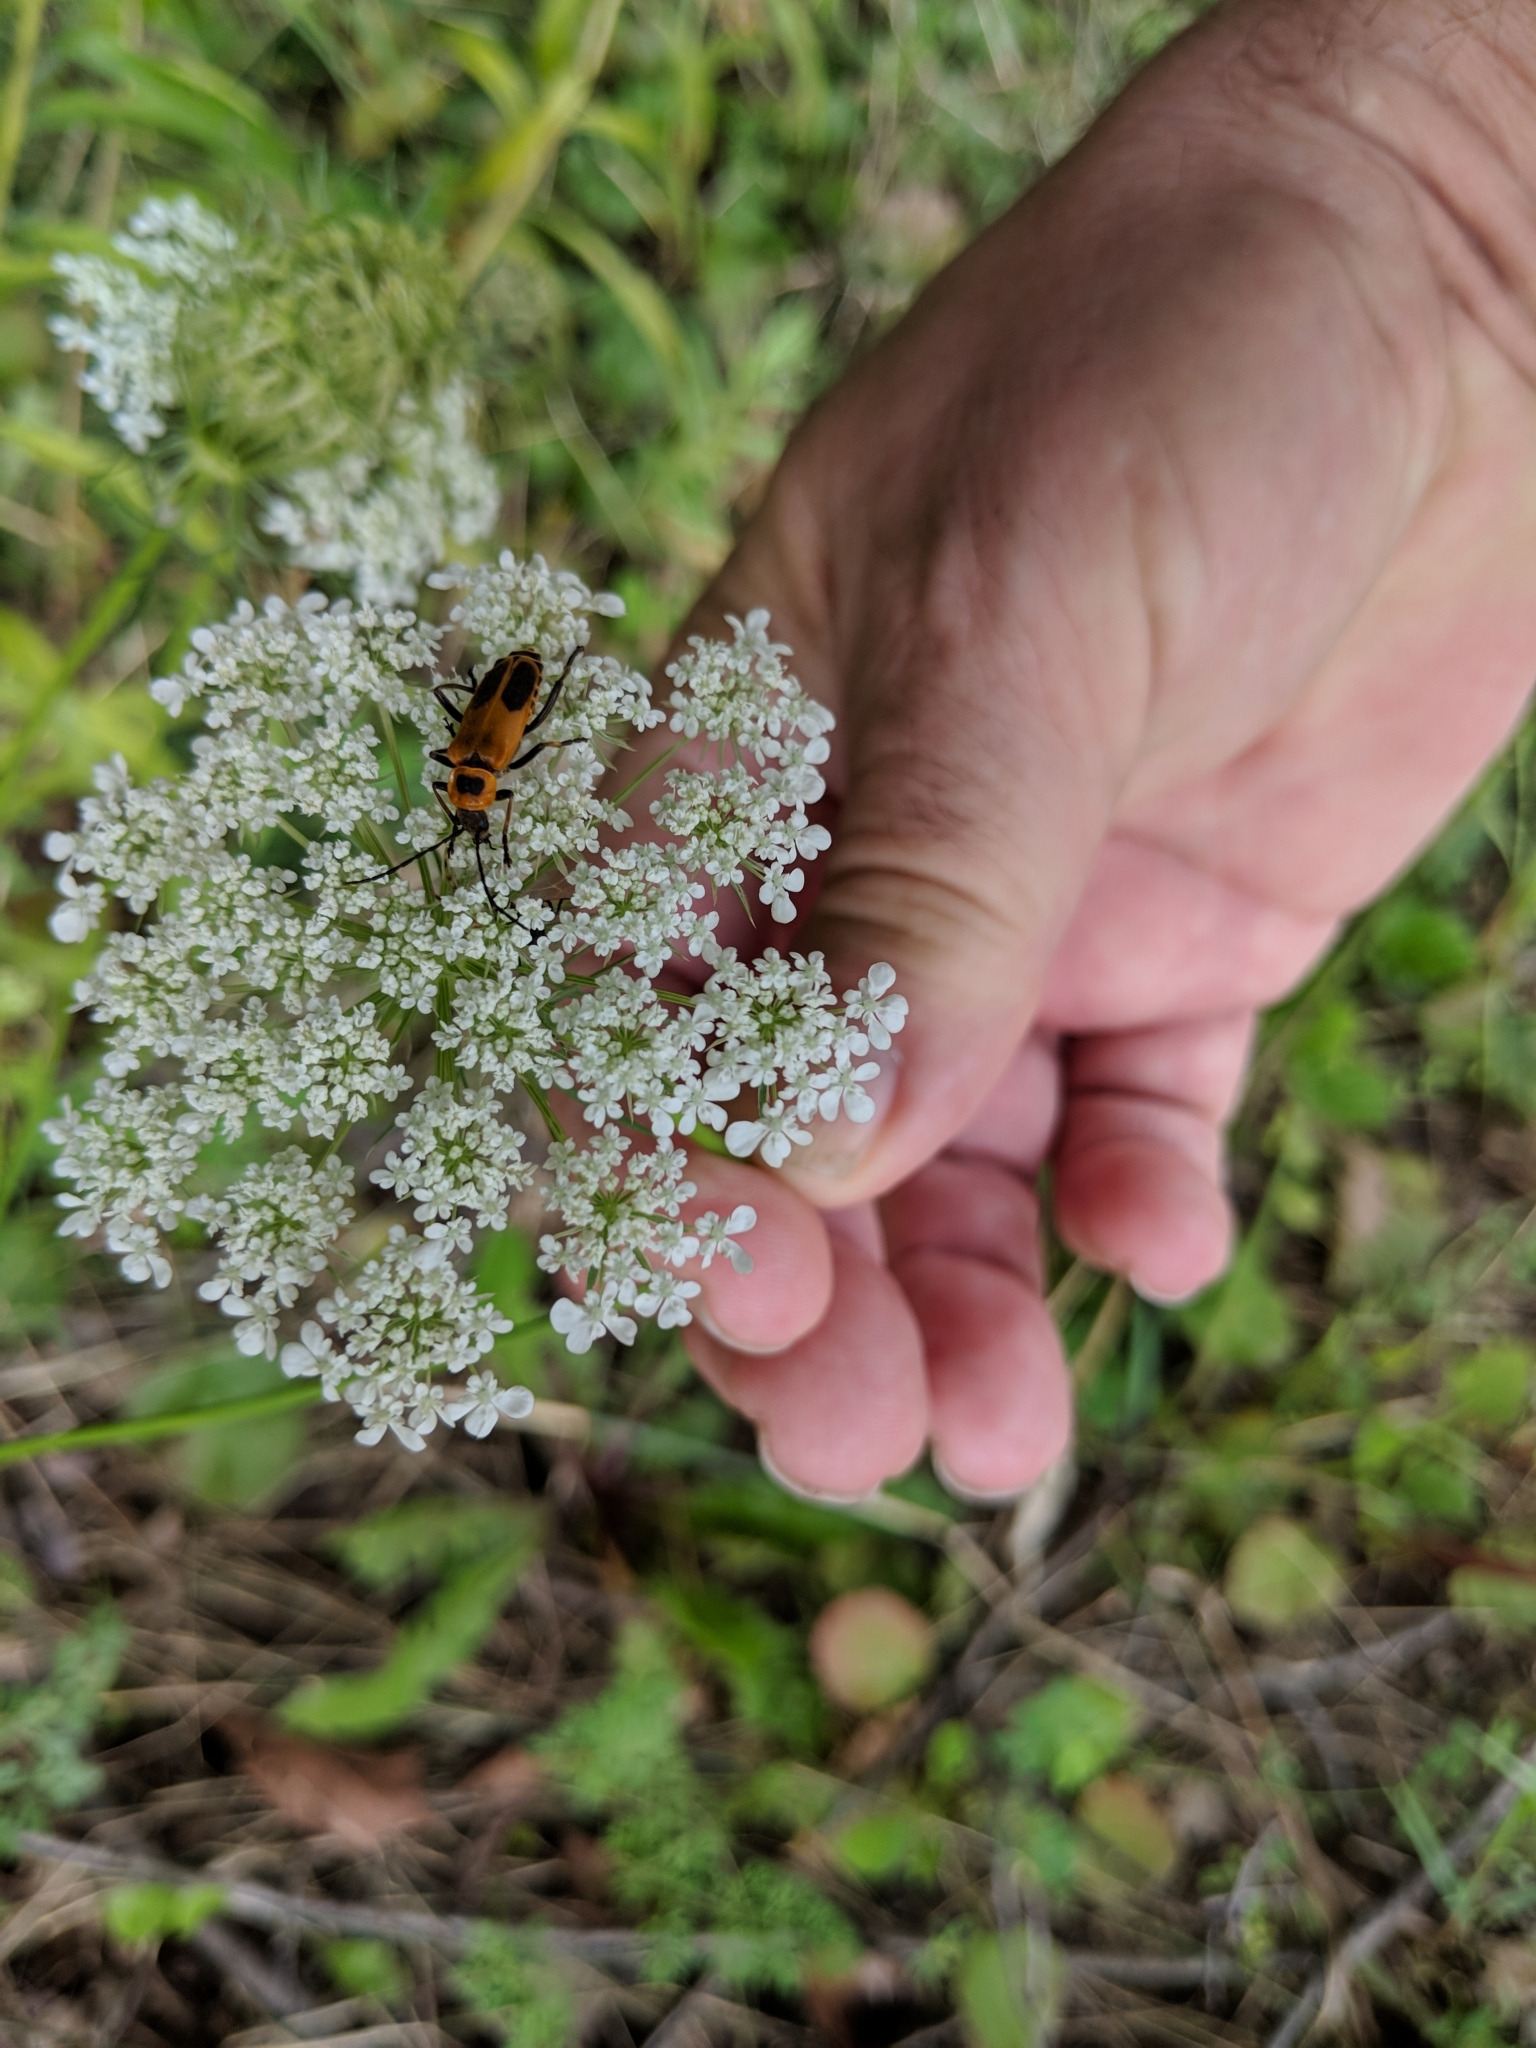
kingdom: Animalia
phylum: Arthropoda
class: Insecta
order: Coleoptera
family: Cantharidae
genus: Chauliognathus
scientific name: Chauliognathus pensylvanicus
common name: Goldenrod soldier beetle
